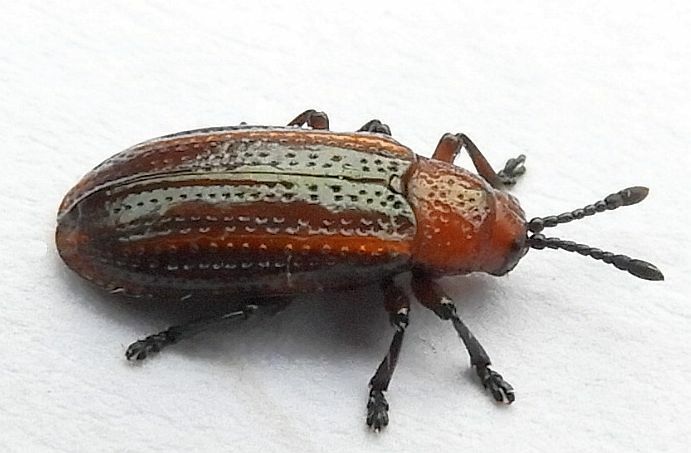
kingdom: Animalia
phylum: Arthropoda
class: Insecta
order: Coleoptera
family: Chrysomelidae
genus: Microrhopala
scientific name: Microrhopala vittata
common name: Goldenrod leaf miner beetle
